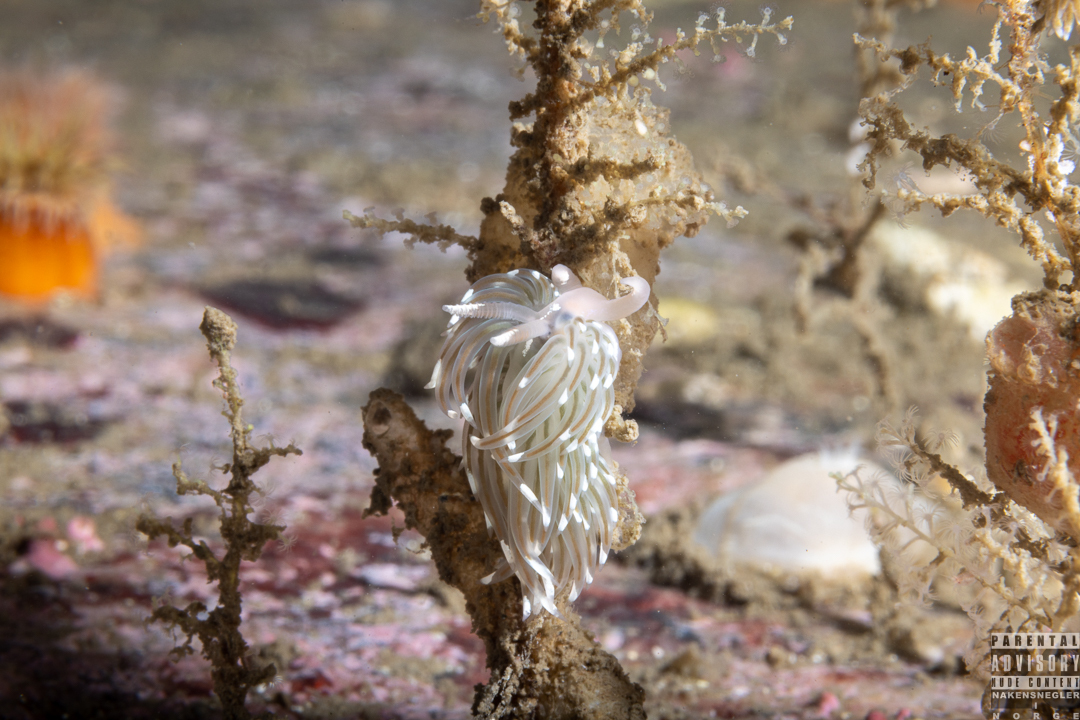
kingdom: Animalia
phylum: Mollusca
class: Gastropoda
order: Nudibranchia
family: Facelinidae
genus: Facelina
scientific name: Facelina bostoniensis
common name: Boston facelina
